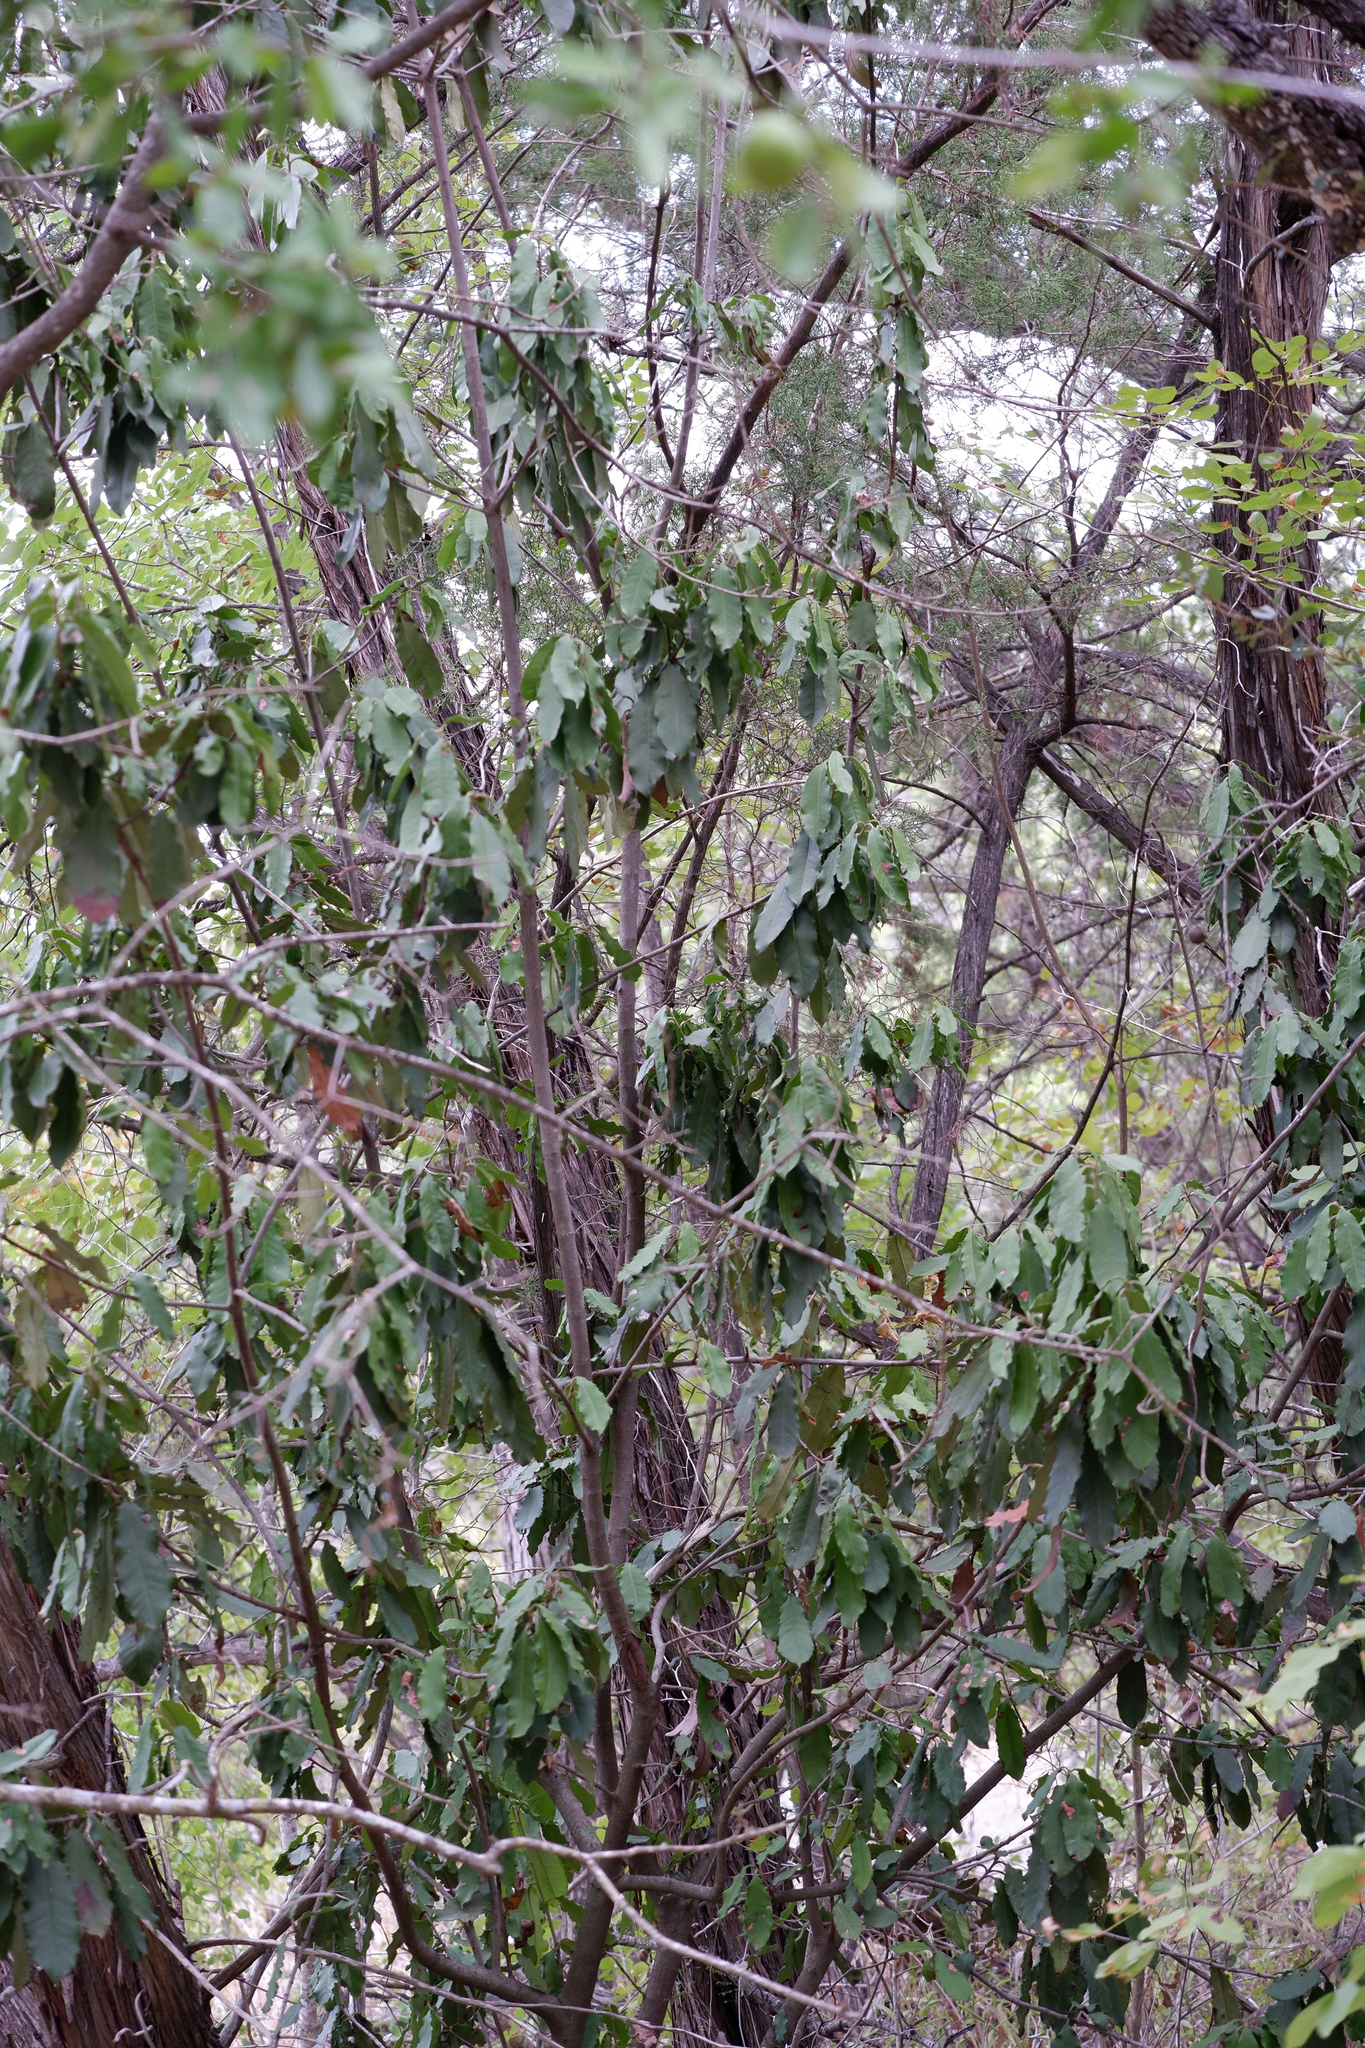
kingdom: Plantae
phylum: Tracheophyta
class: Magnoliopsida
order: Rosales
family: Rosaceae
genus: Photinia
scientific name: Photinia serratifolia
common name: Taiwanese photinia
